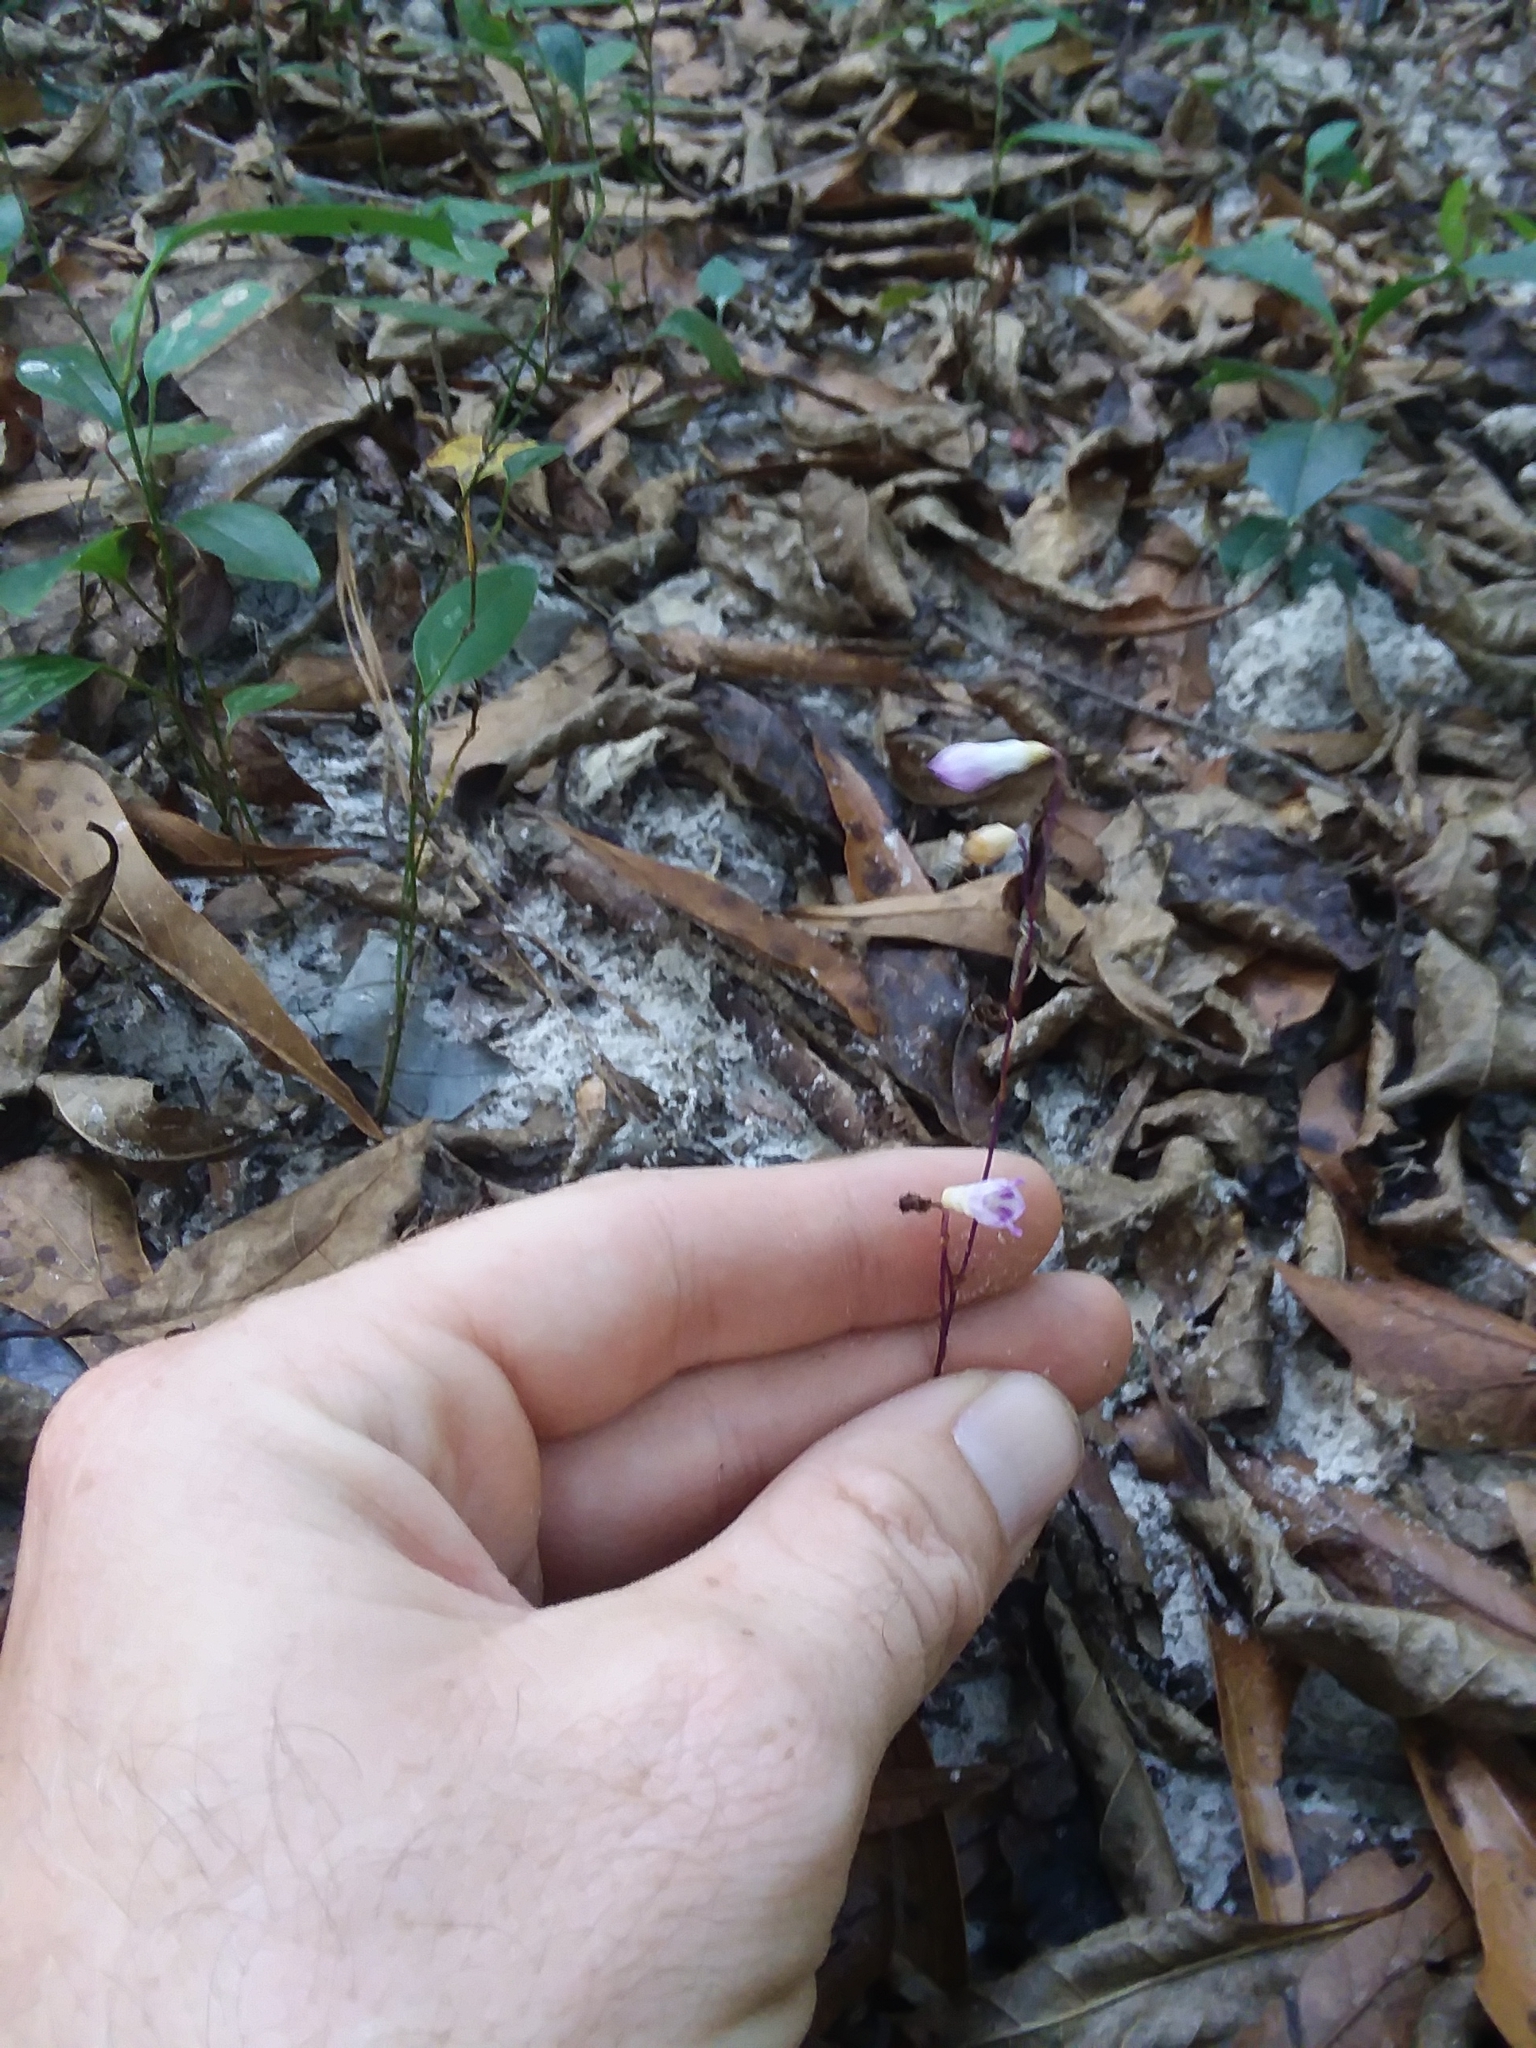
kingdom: Plantae
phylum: Tracheophyta
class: Liliopsida
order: Dioscoreales
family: Burmanniaceae
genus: Apteria
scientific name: Apteria aphylla
